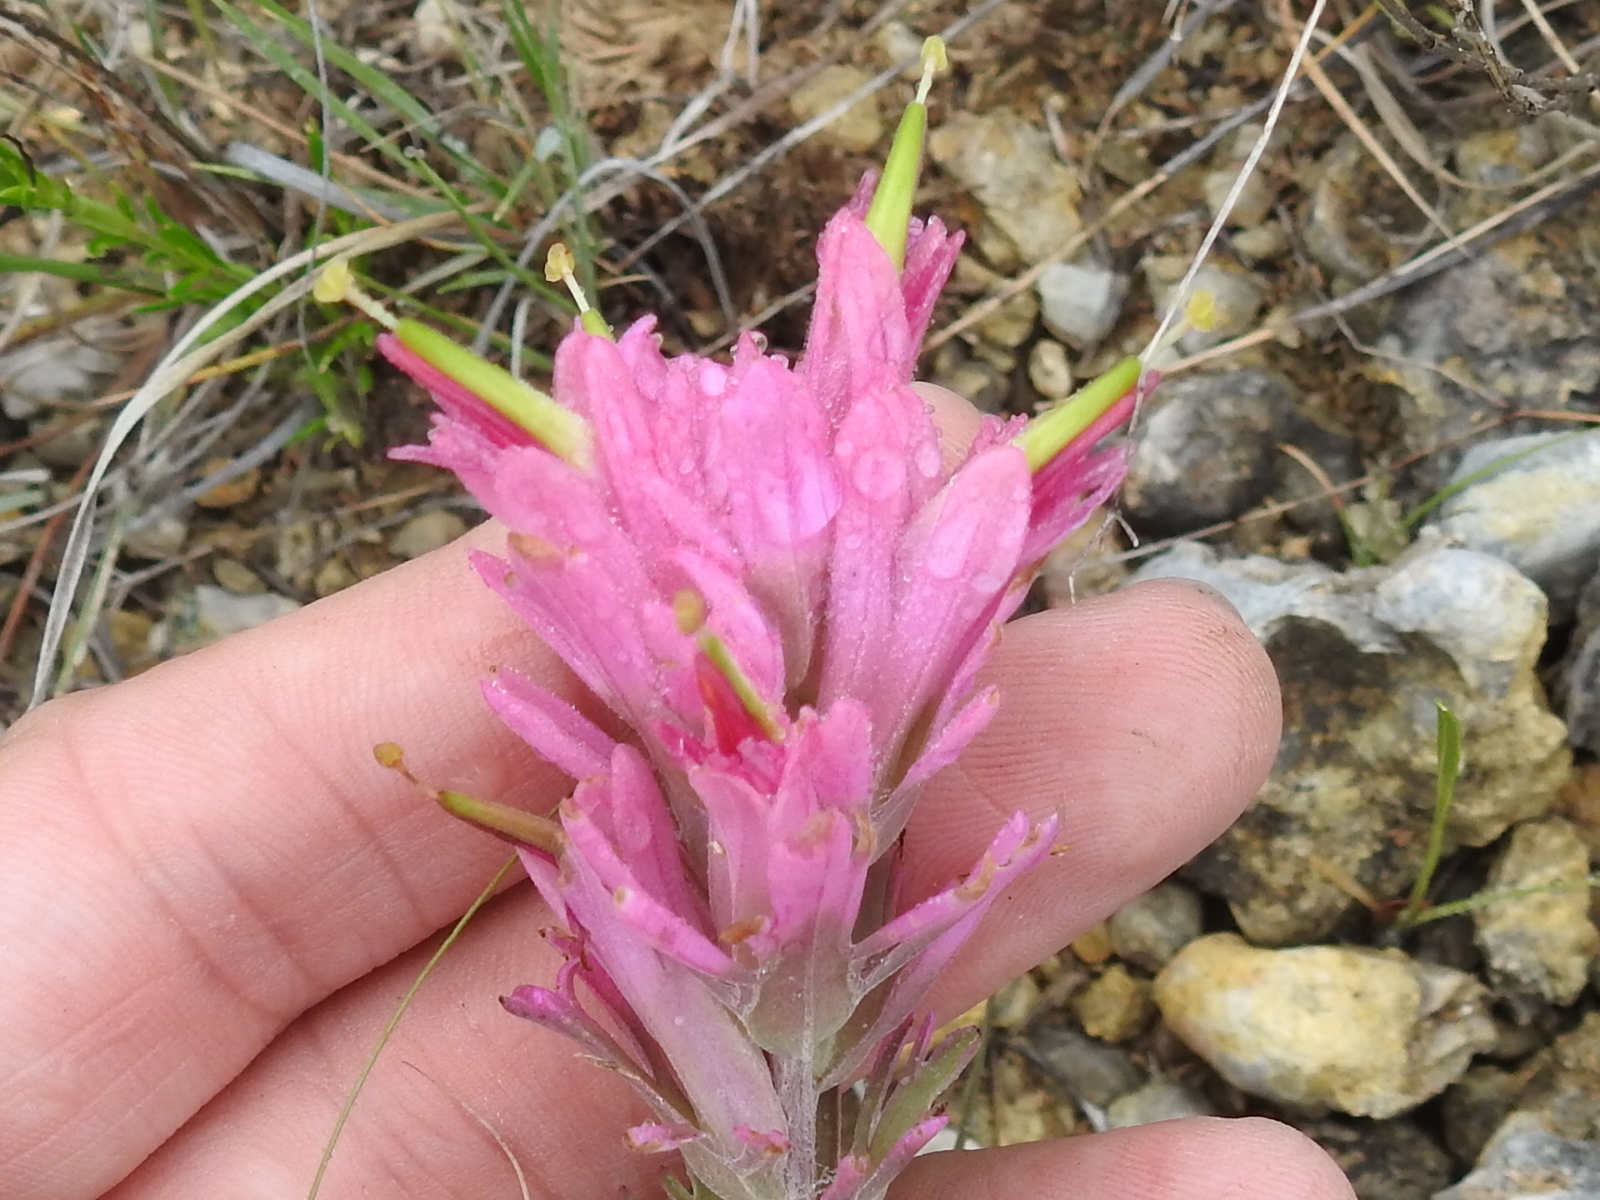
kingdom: Plantae
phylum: Tracheophyta
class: Magnoliopsida
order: Lamiales
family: Orobanchaceae
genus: Castilleja
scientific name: Castilleja purpurea
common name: Plains paintbrush
